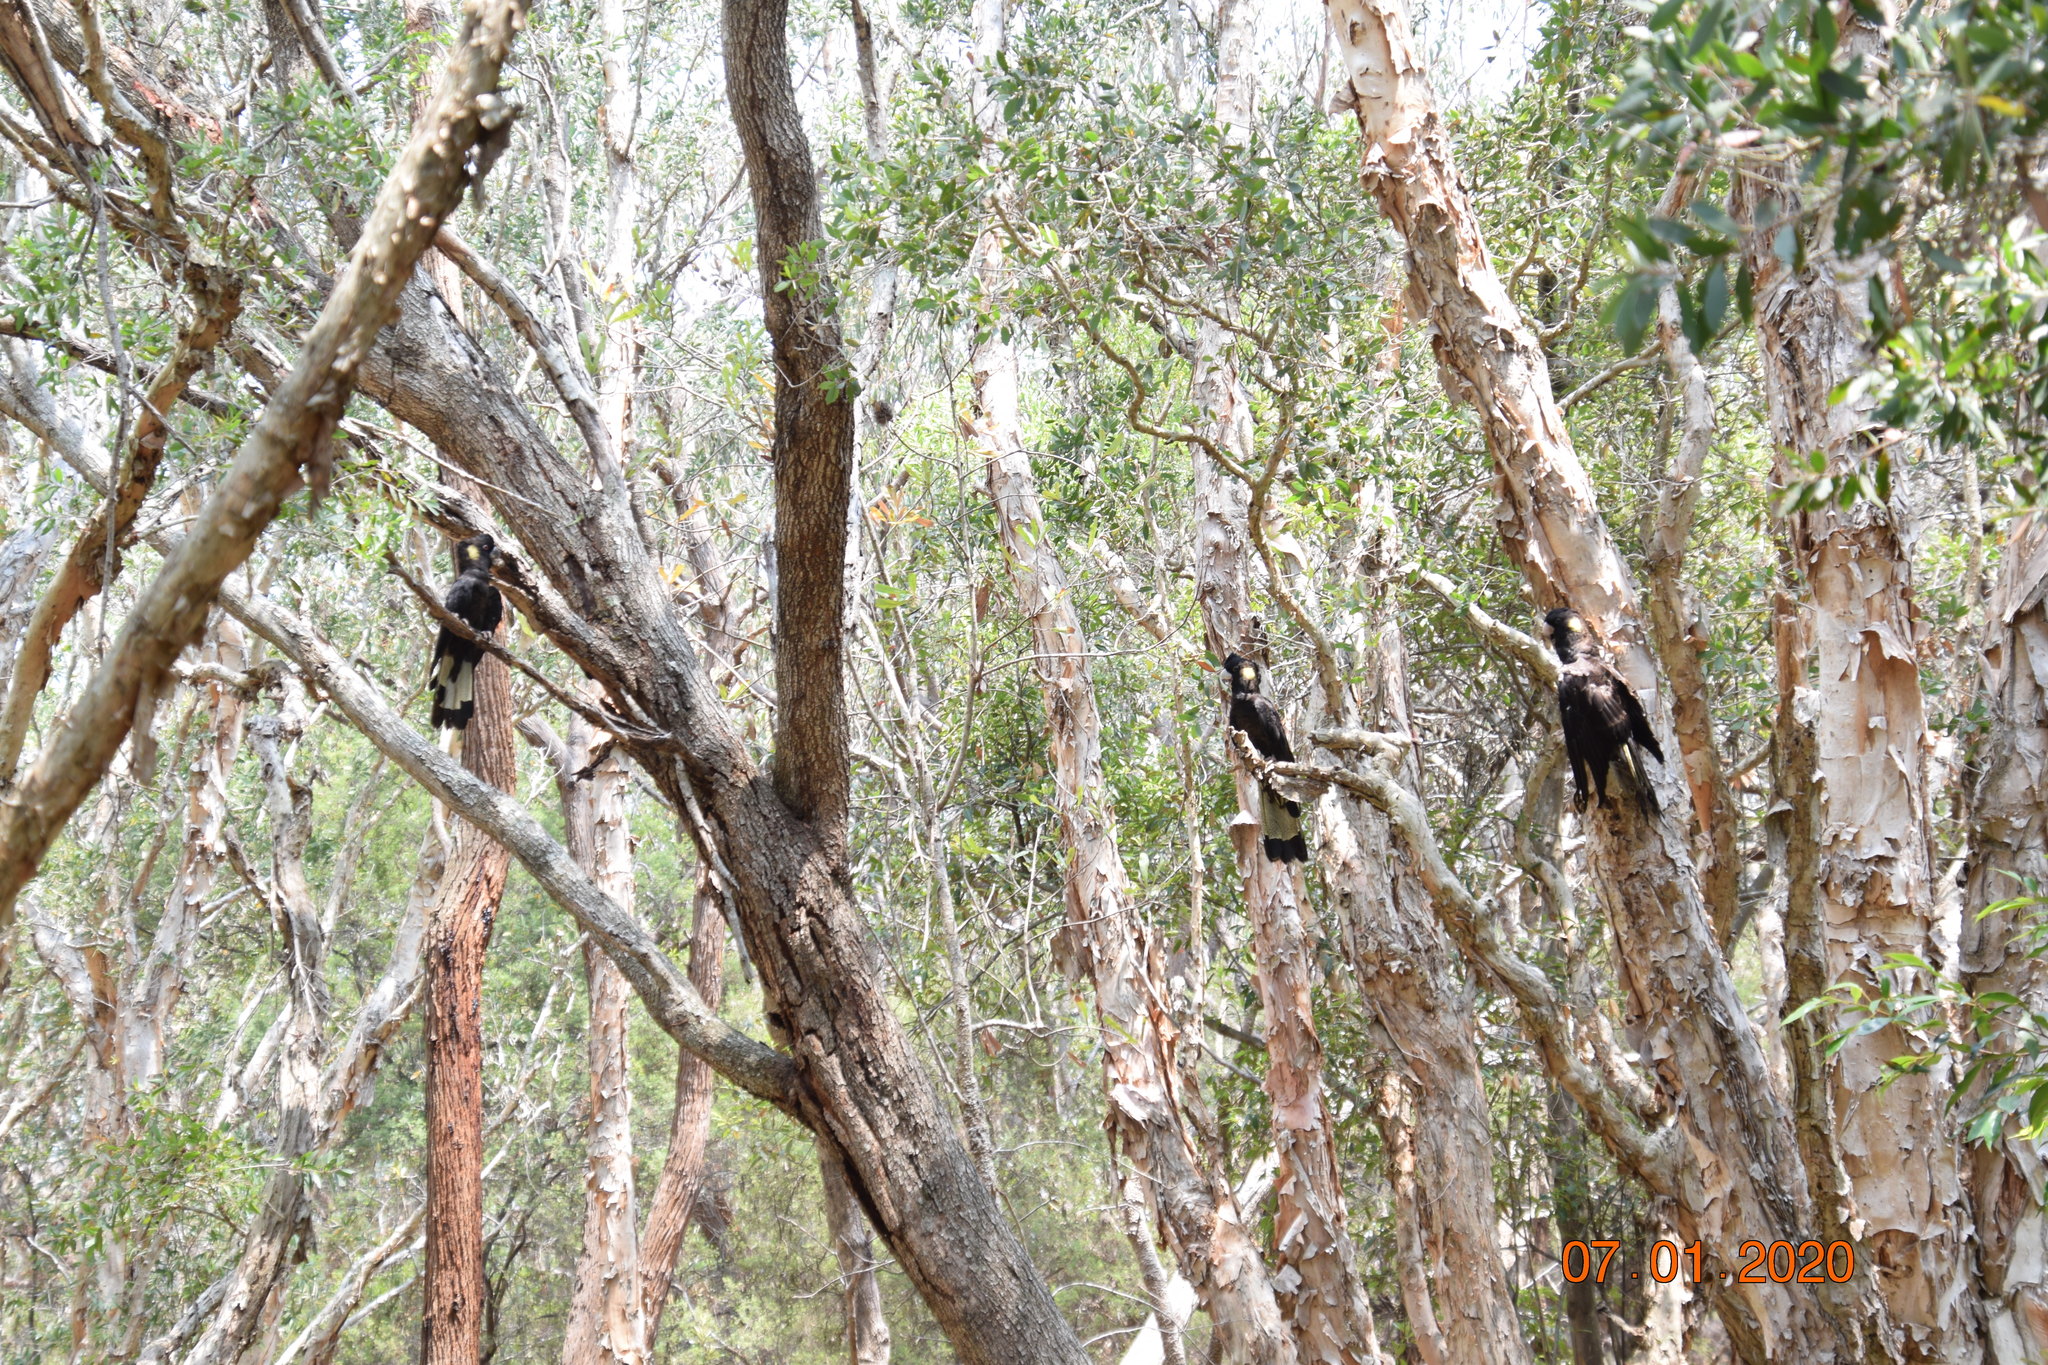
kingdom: Animalia
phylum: Chordata
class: Aves
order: Psittaciformes
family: Cacatuidae
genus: Zanda
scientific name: Zanda funerea
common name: Yellow-tailed black-cockatoo
